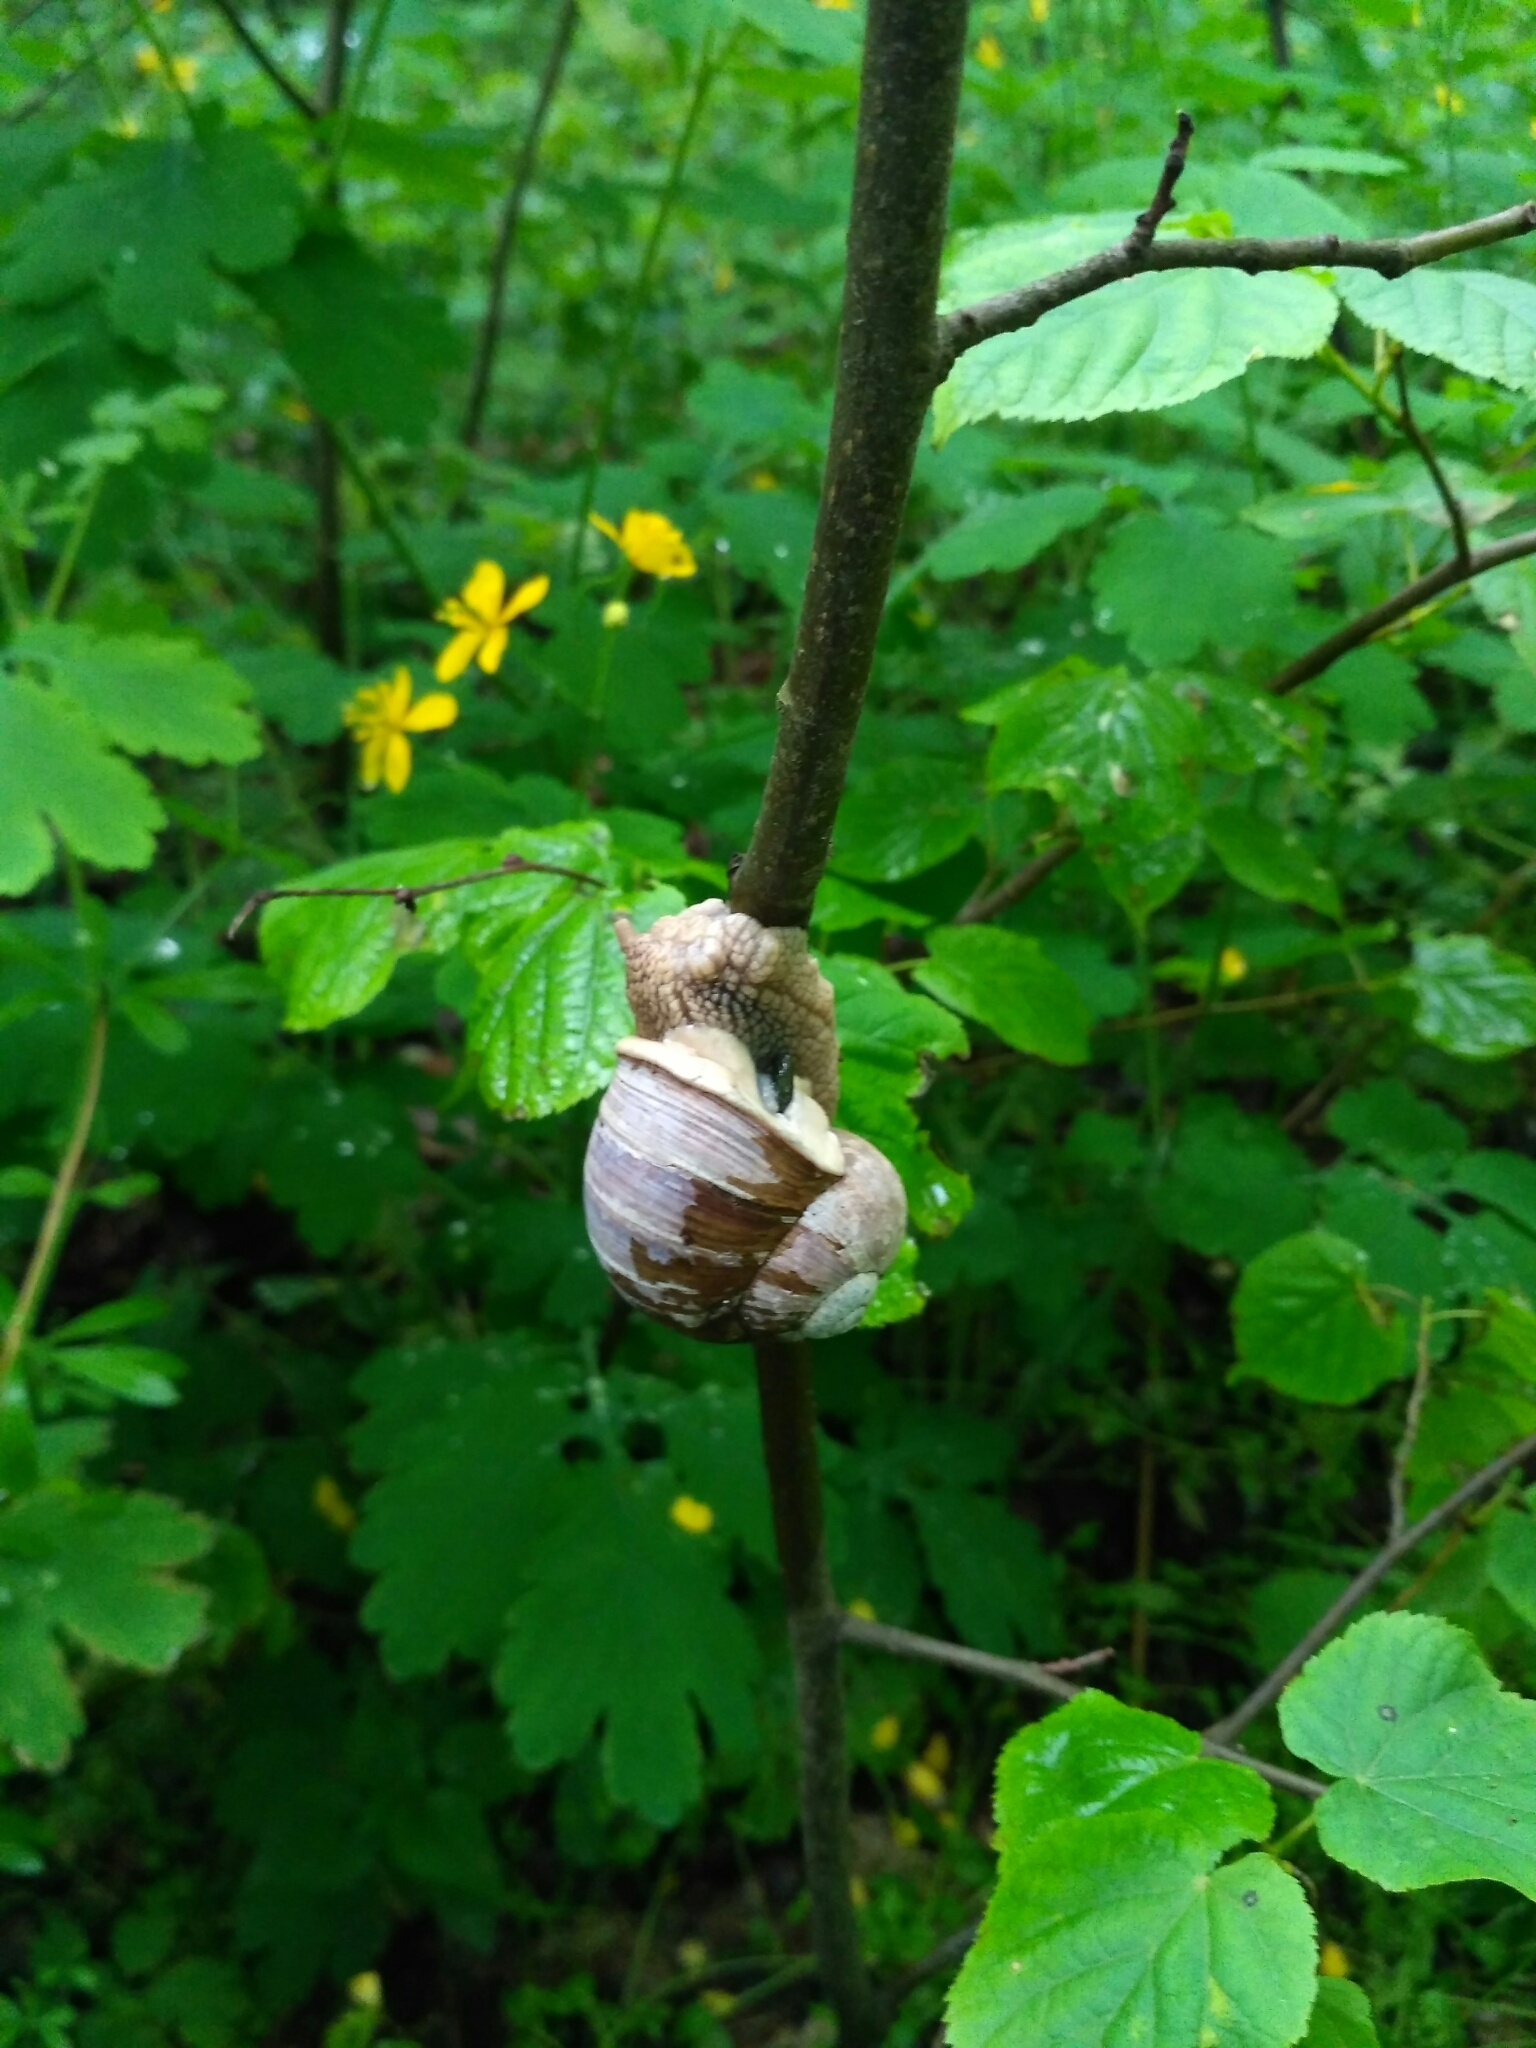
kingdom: Animalia
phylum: Mollusca
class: Gastropoda
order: Stylommatophora
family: Helicidae
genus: Helix
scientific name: Helix pomatia
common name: Roman snail
